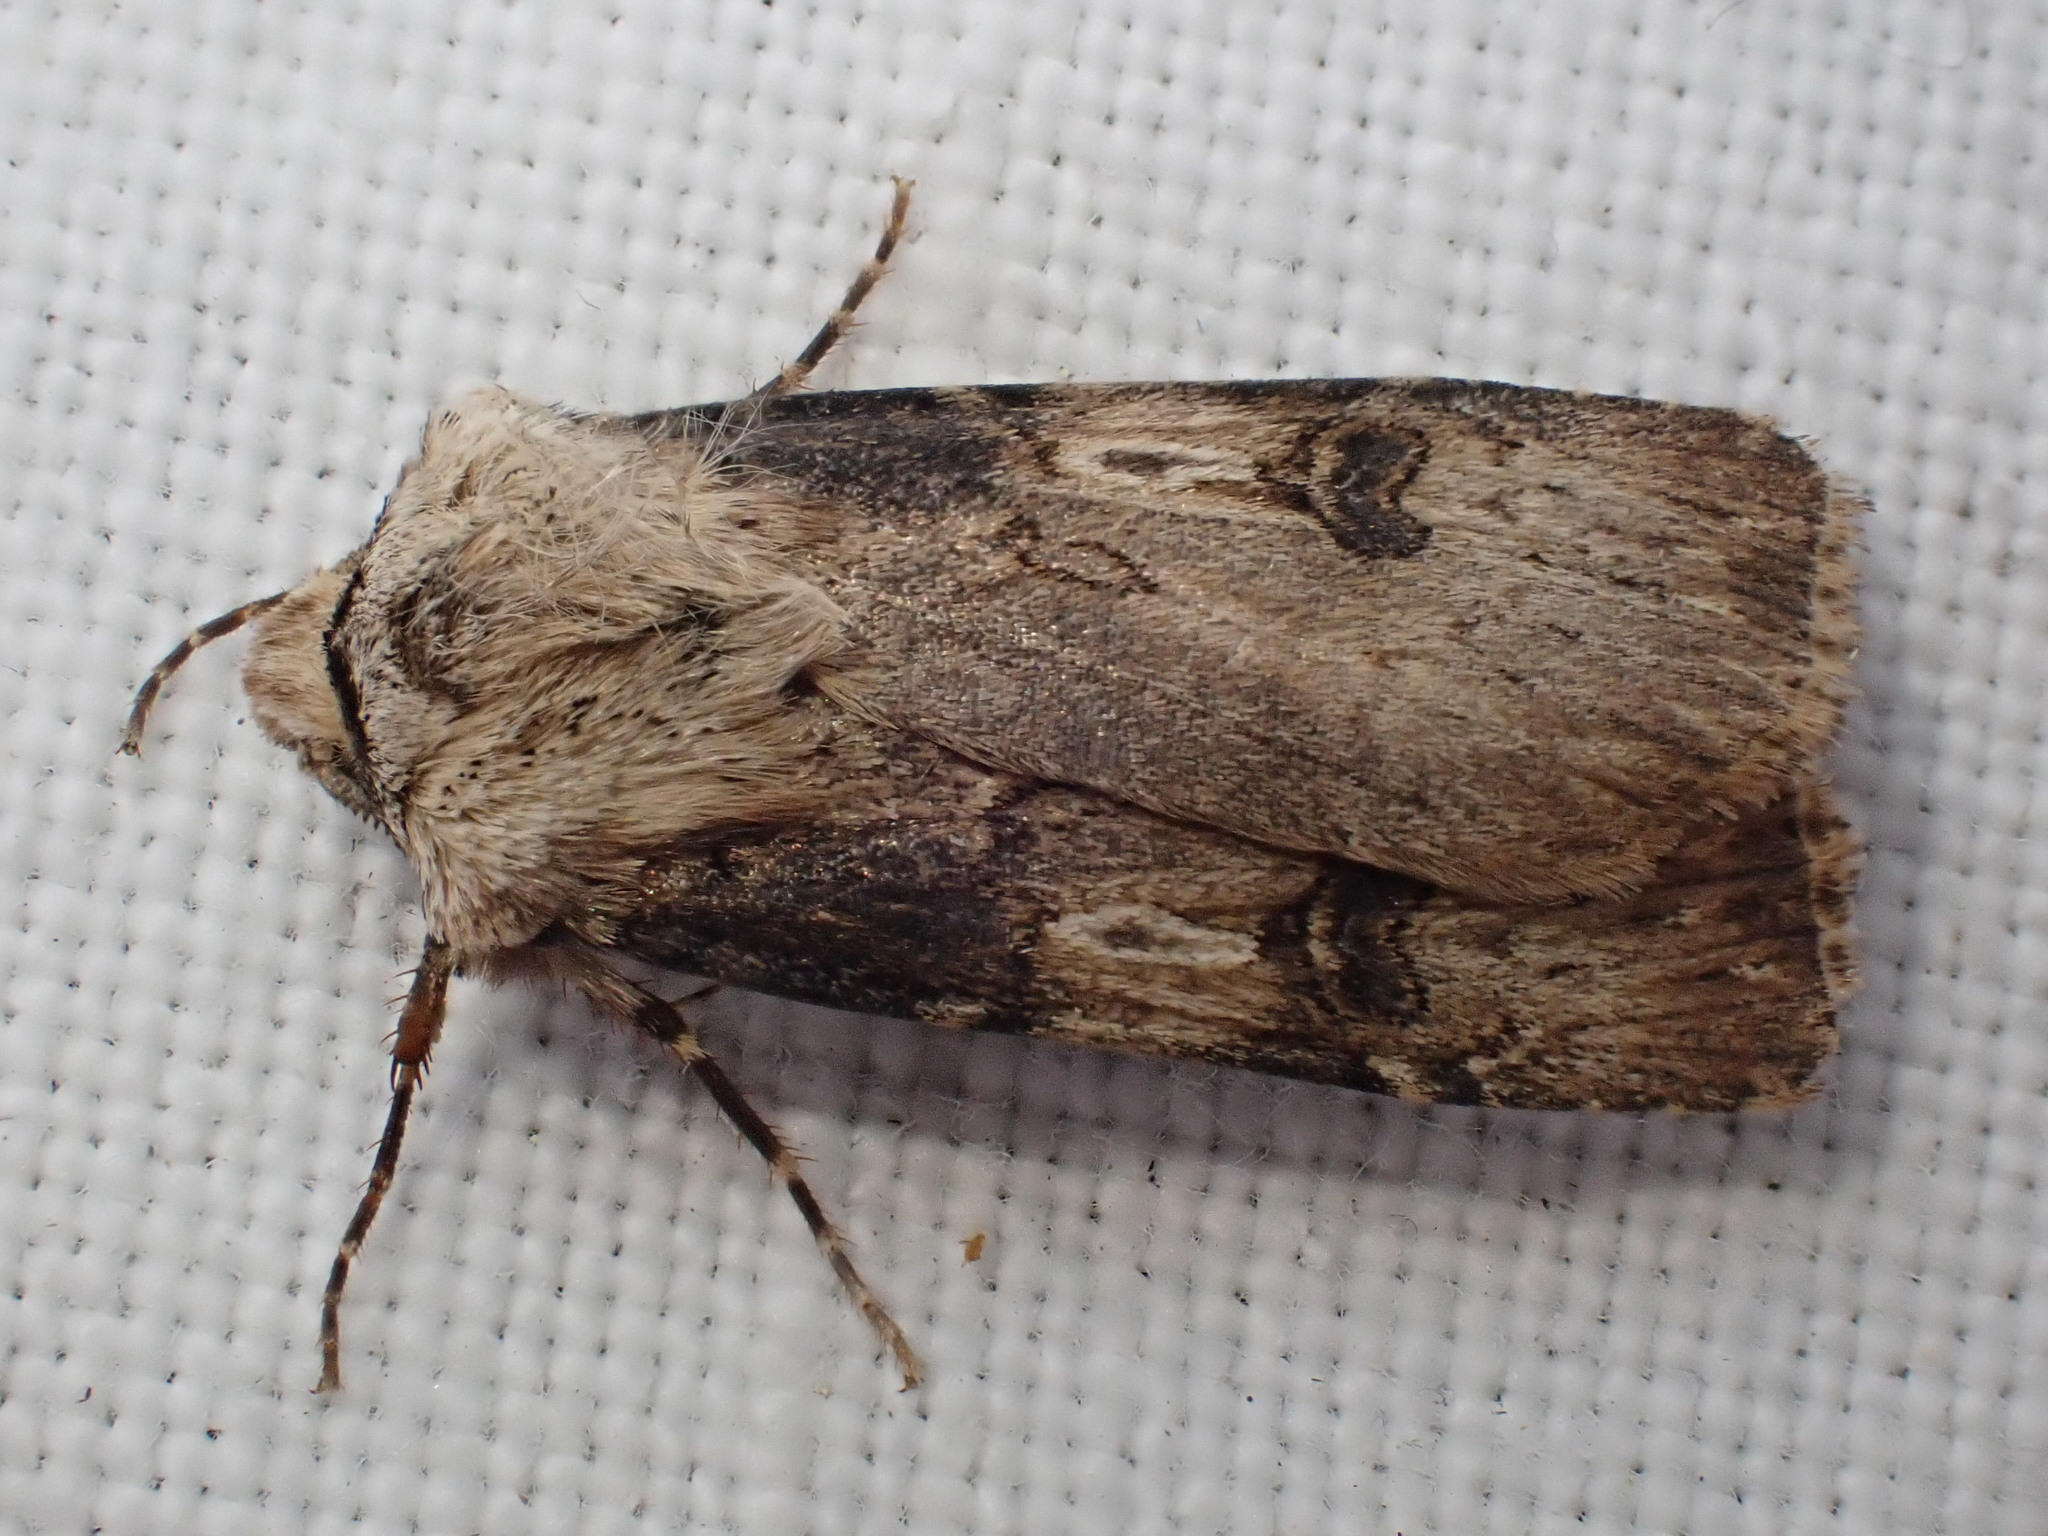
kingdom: Animalia
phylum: Arthropoda
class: Insecta
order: Lepidoptera
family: Noctuidae
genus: Agrotis
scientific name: Agrotis puta
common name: Shuttle-shaped dart
